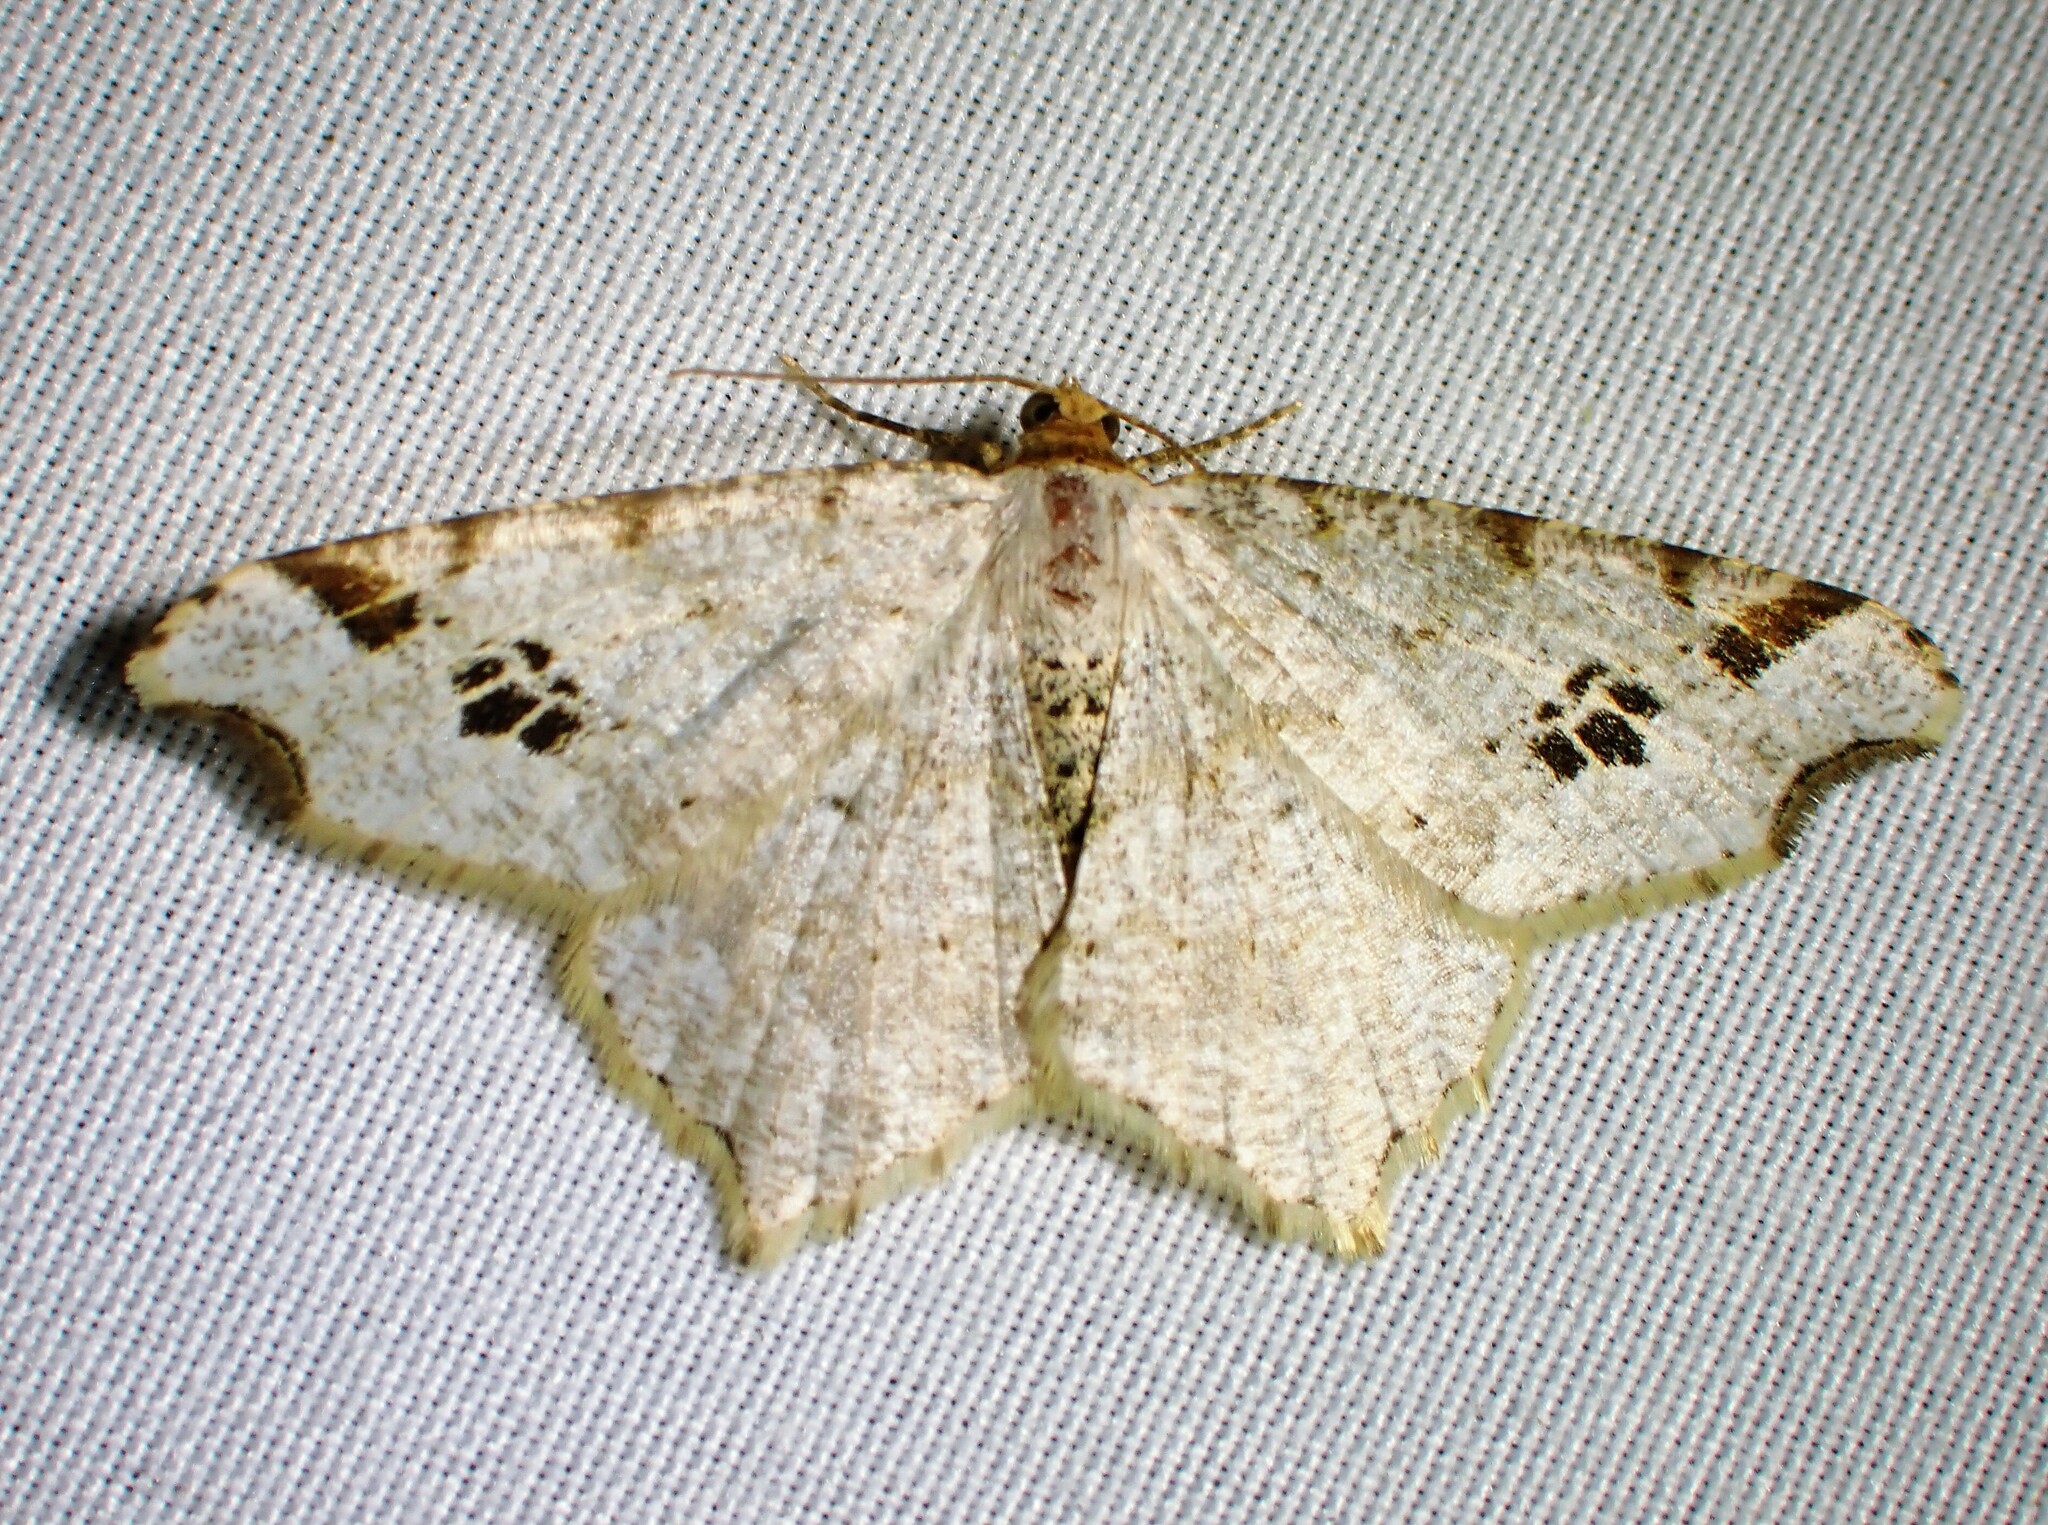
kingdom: Animalia
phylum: Arthropoda
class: Insecta
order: Lepidoptera
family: Geometridae
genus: Macaria
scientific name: Macaria ulsterata
